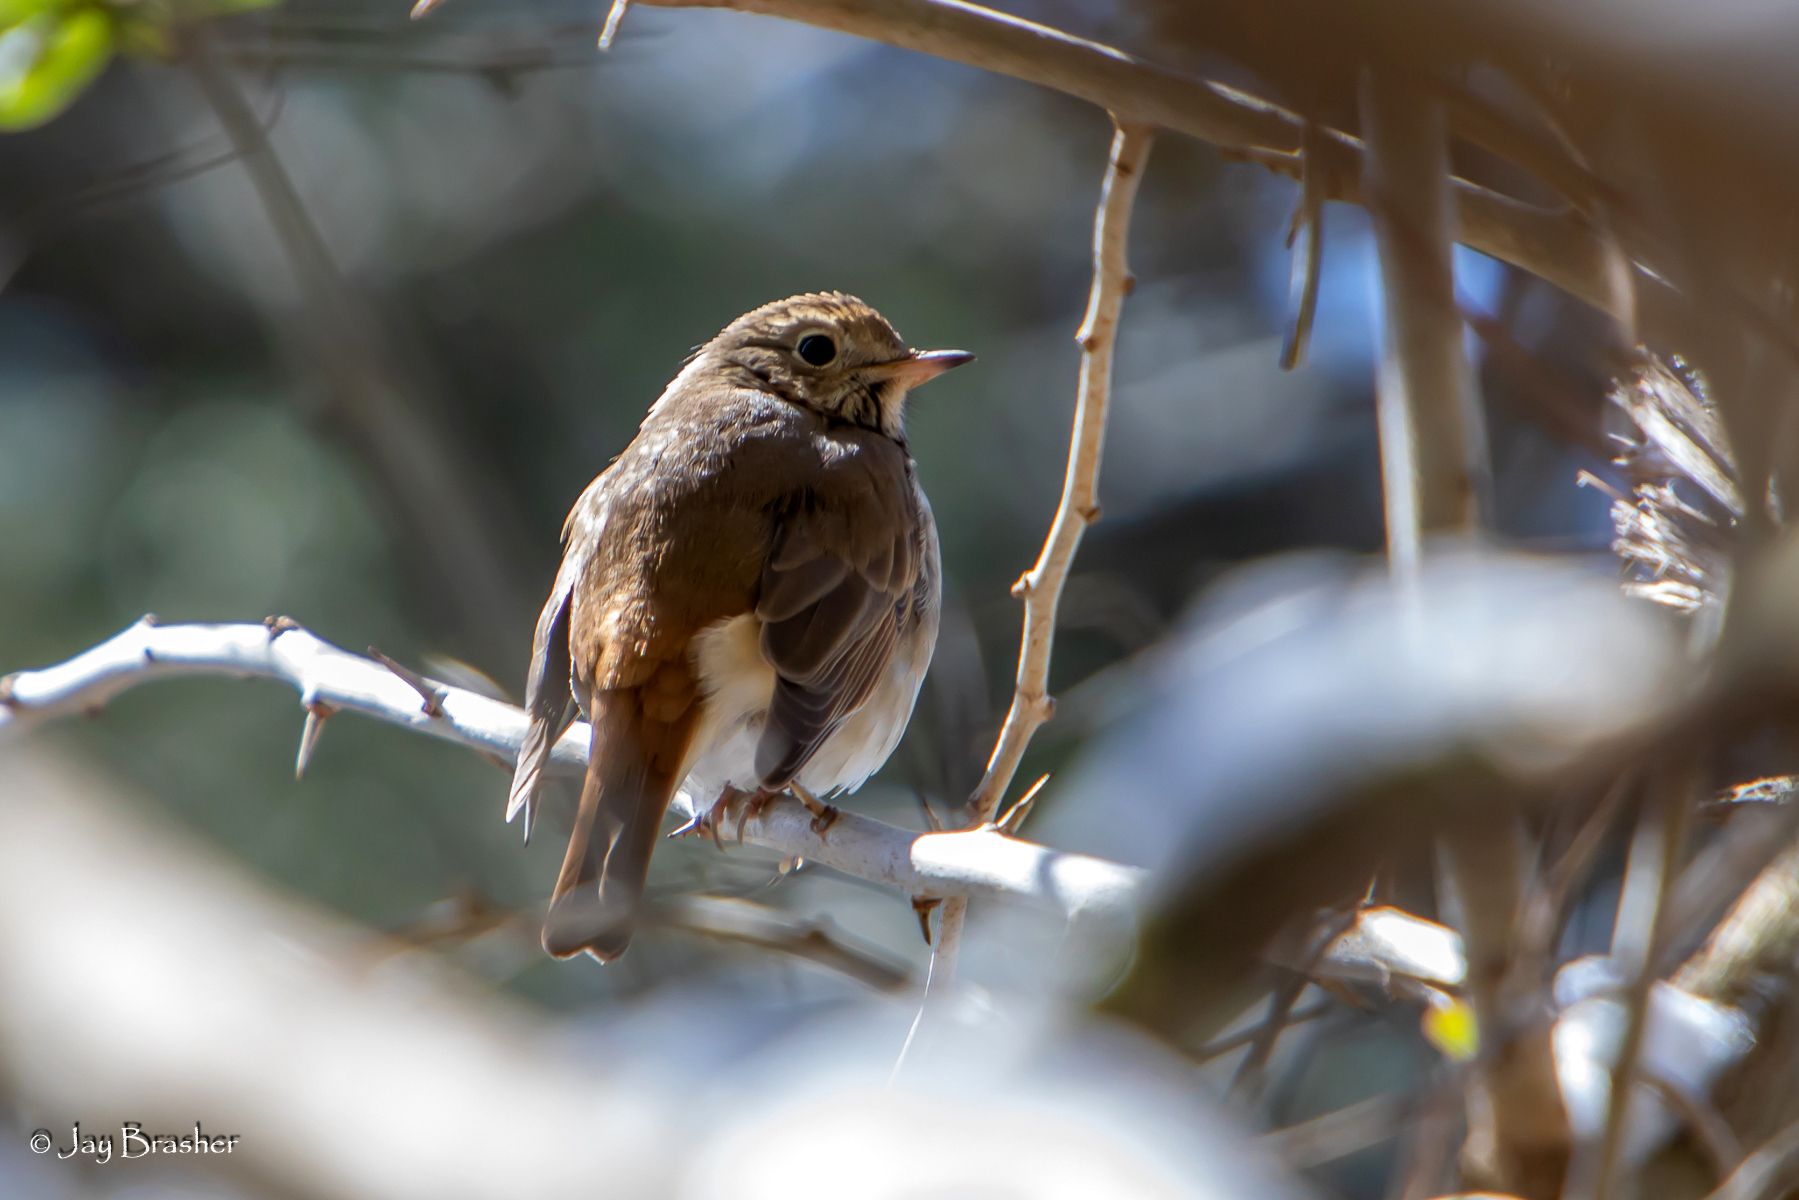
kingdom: Animalia
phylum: Chordata
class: Aves
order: Passeriformes
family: Turdidae
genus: Catharus
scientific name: Catharus guttatus
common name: Hermit thrush
